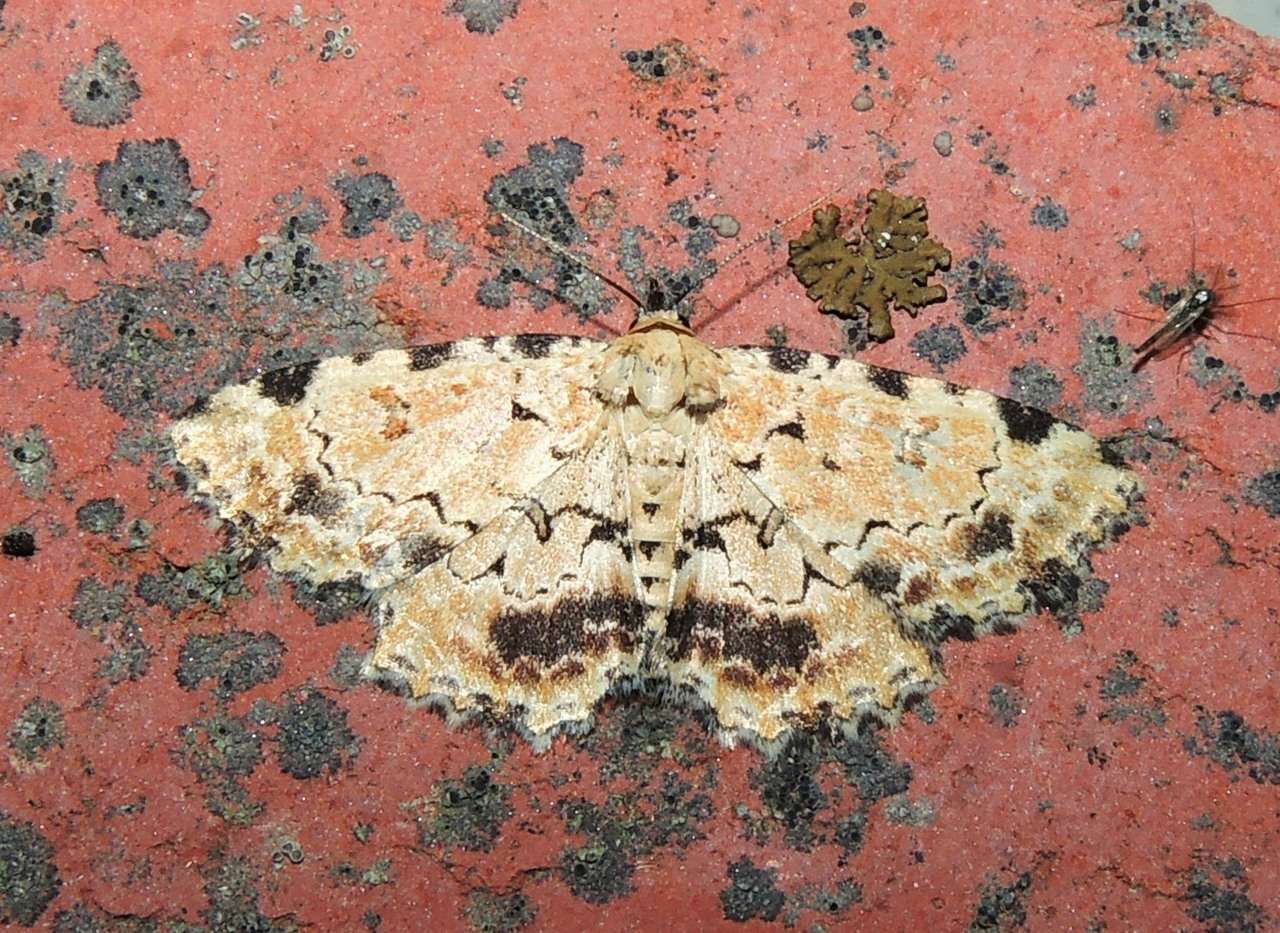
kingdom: Animalia
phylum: Arthropoda
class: Insecta
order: Lepidoptera
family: Erebidae
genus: Sandava
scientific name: Sandava scitisignata
